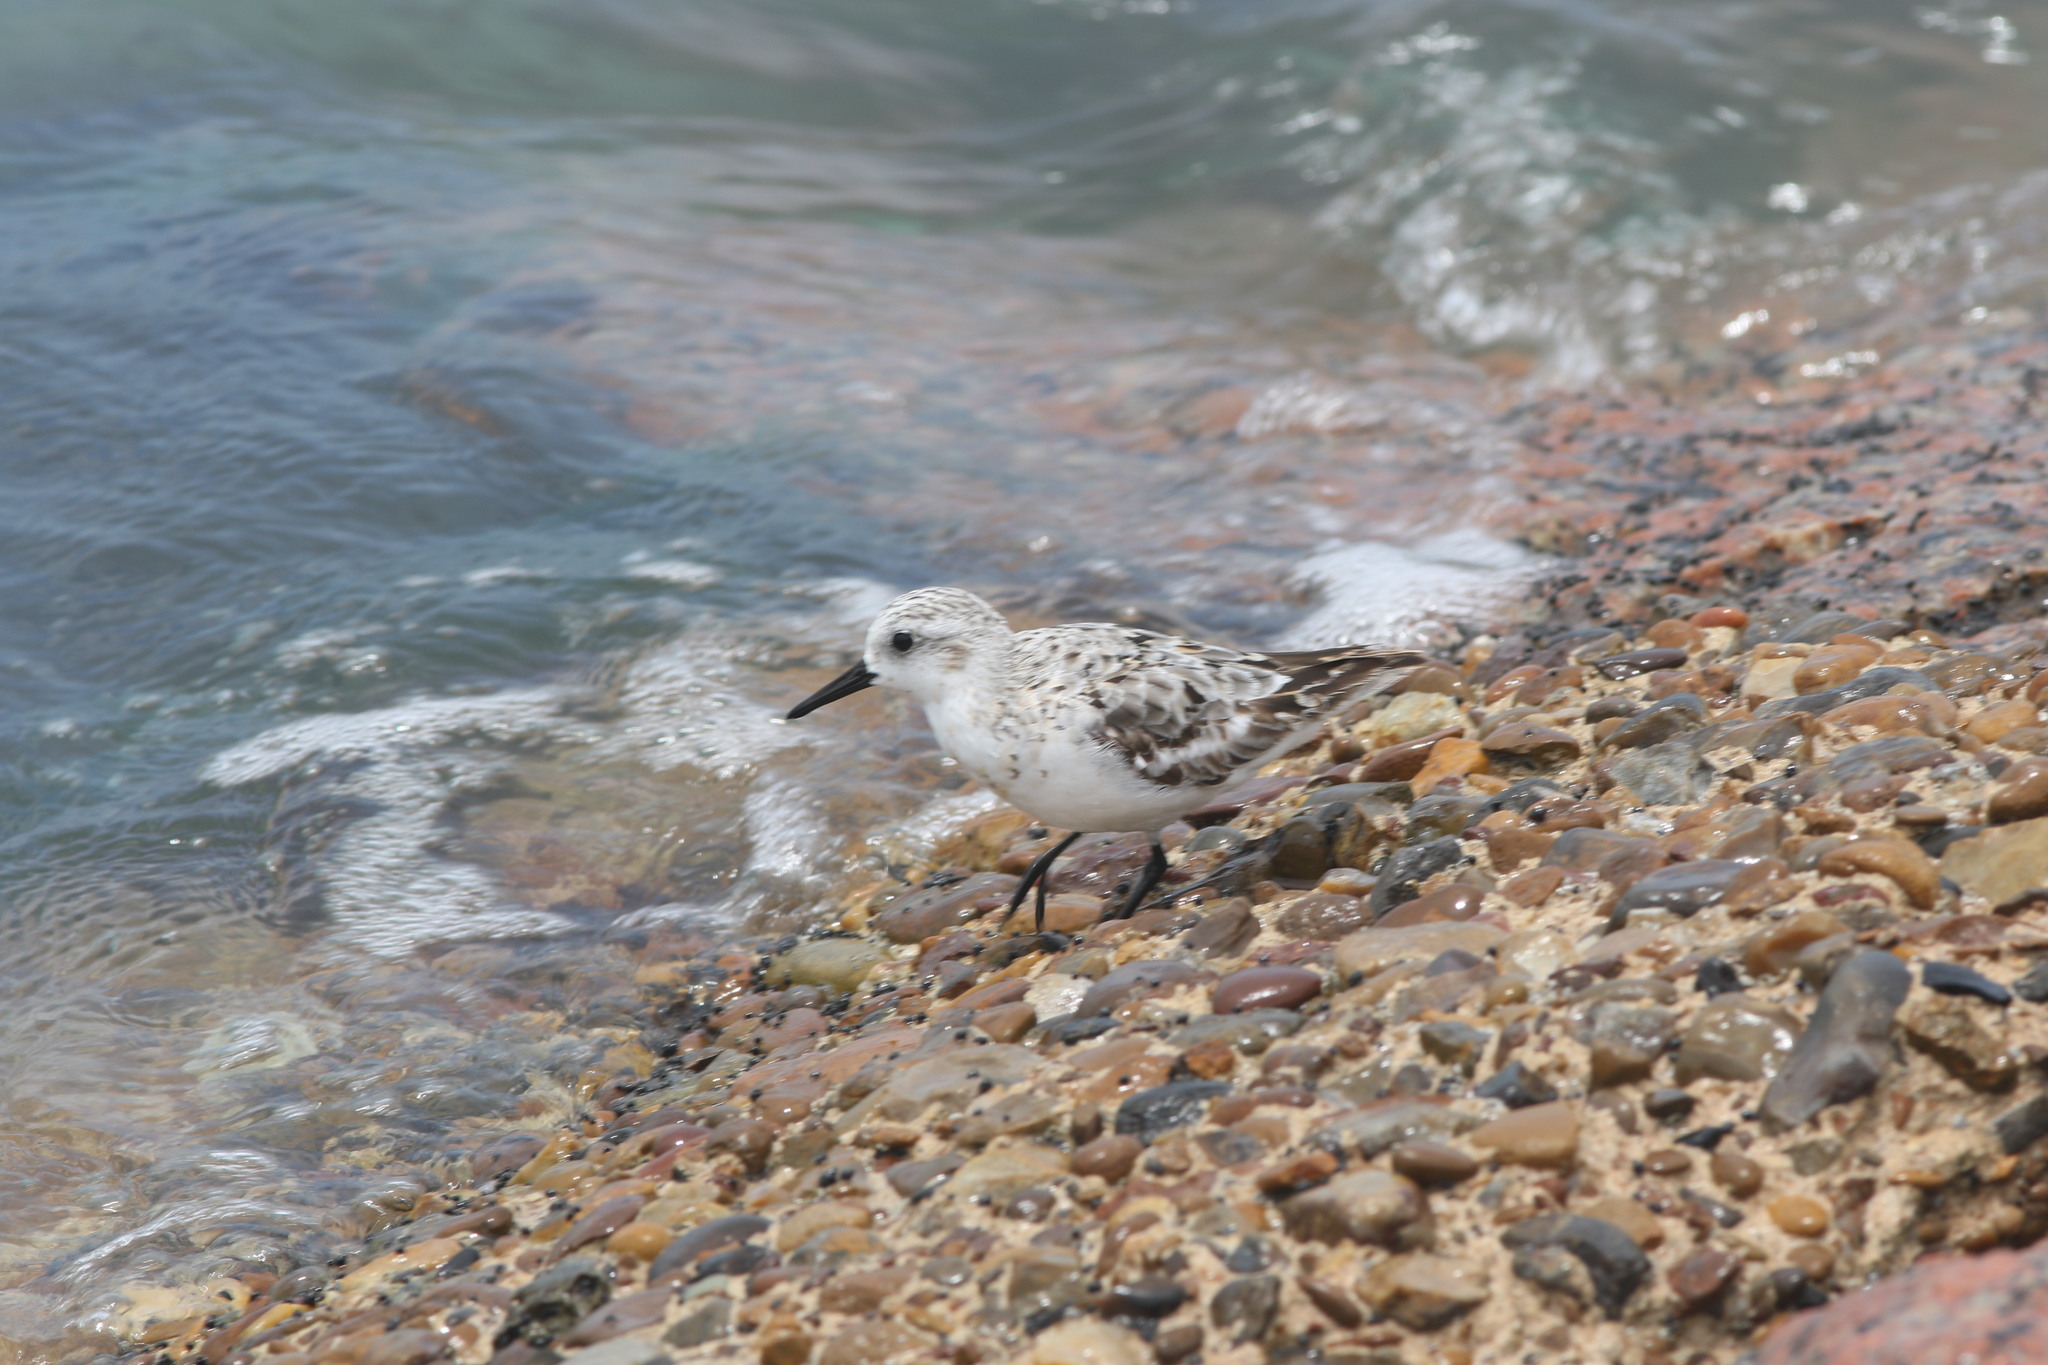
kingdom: Animalia
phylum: Chordata
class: Aves
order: Charadriiformes
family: Scolopacidae
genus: Calidris
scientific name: Calidris alba
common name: Sanderling
